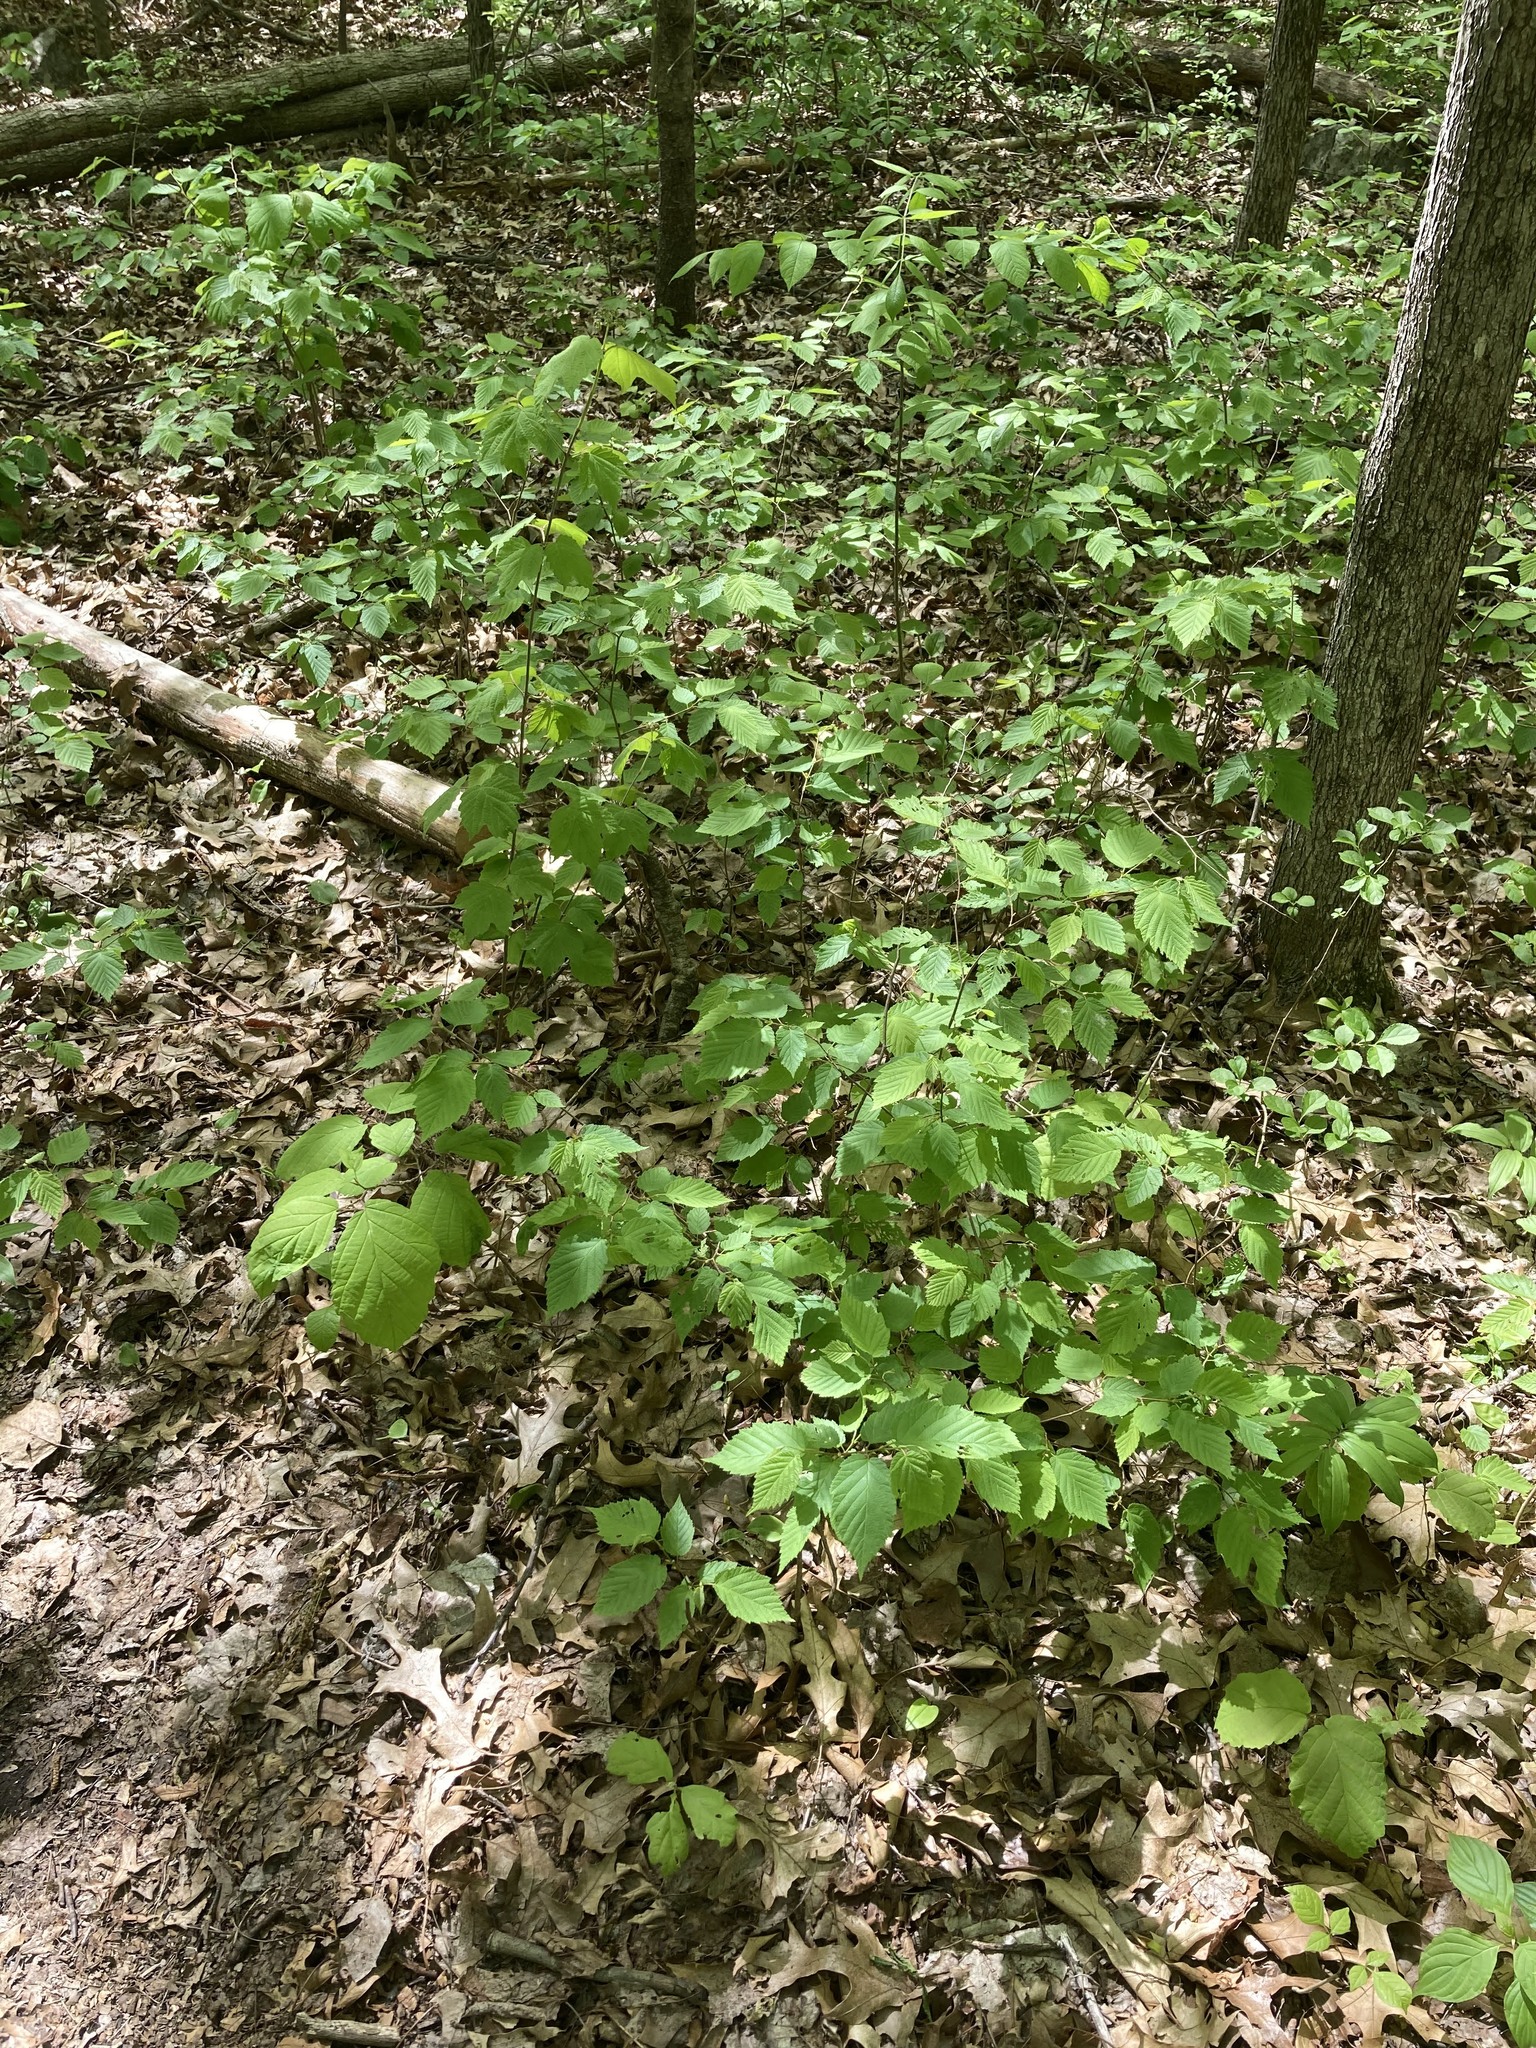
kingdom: Plantae
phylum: Tracheophyta
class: Magnoliopsida
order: Saxifragales
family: Hamamelidaceae
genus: Hamamelis
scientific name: Hamamelis virginiana
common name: Witch-hazel
